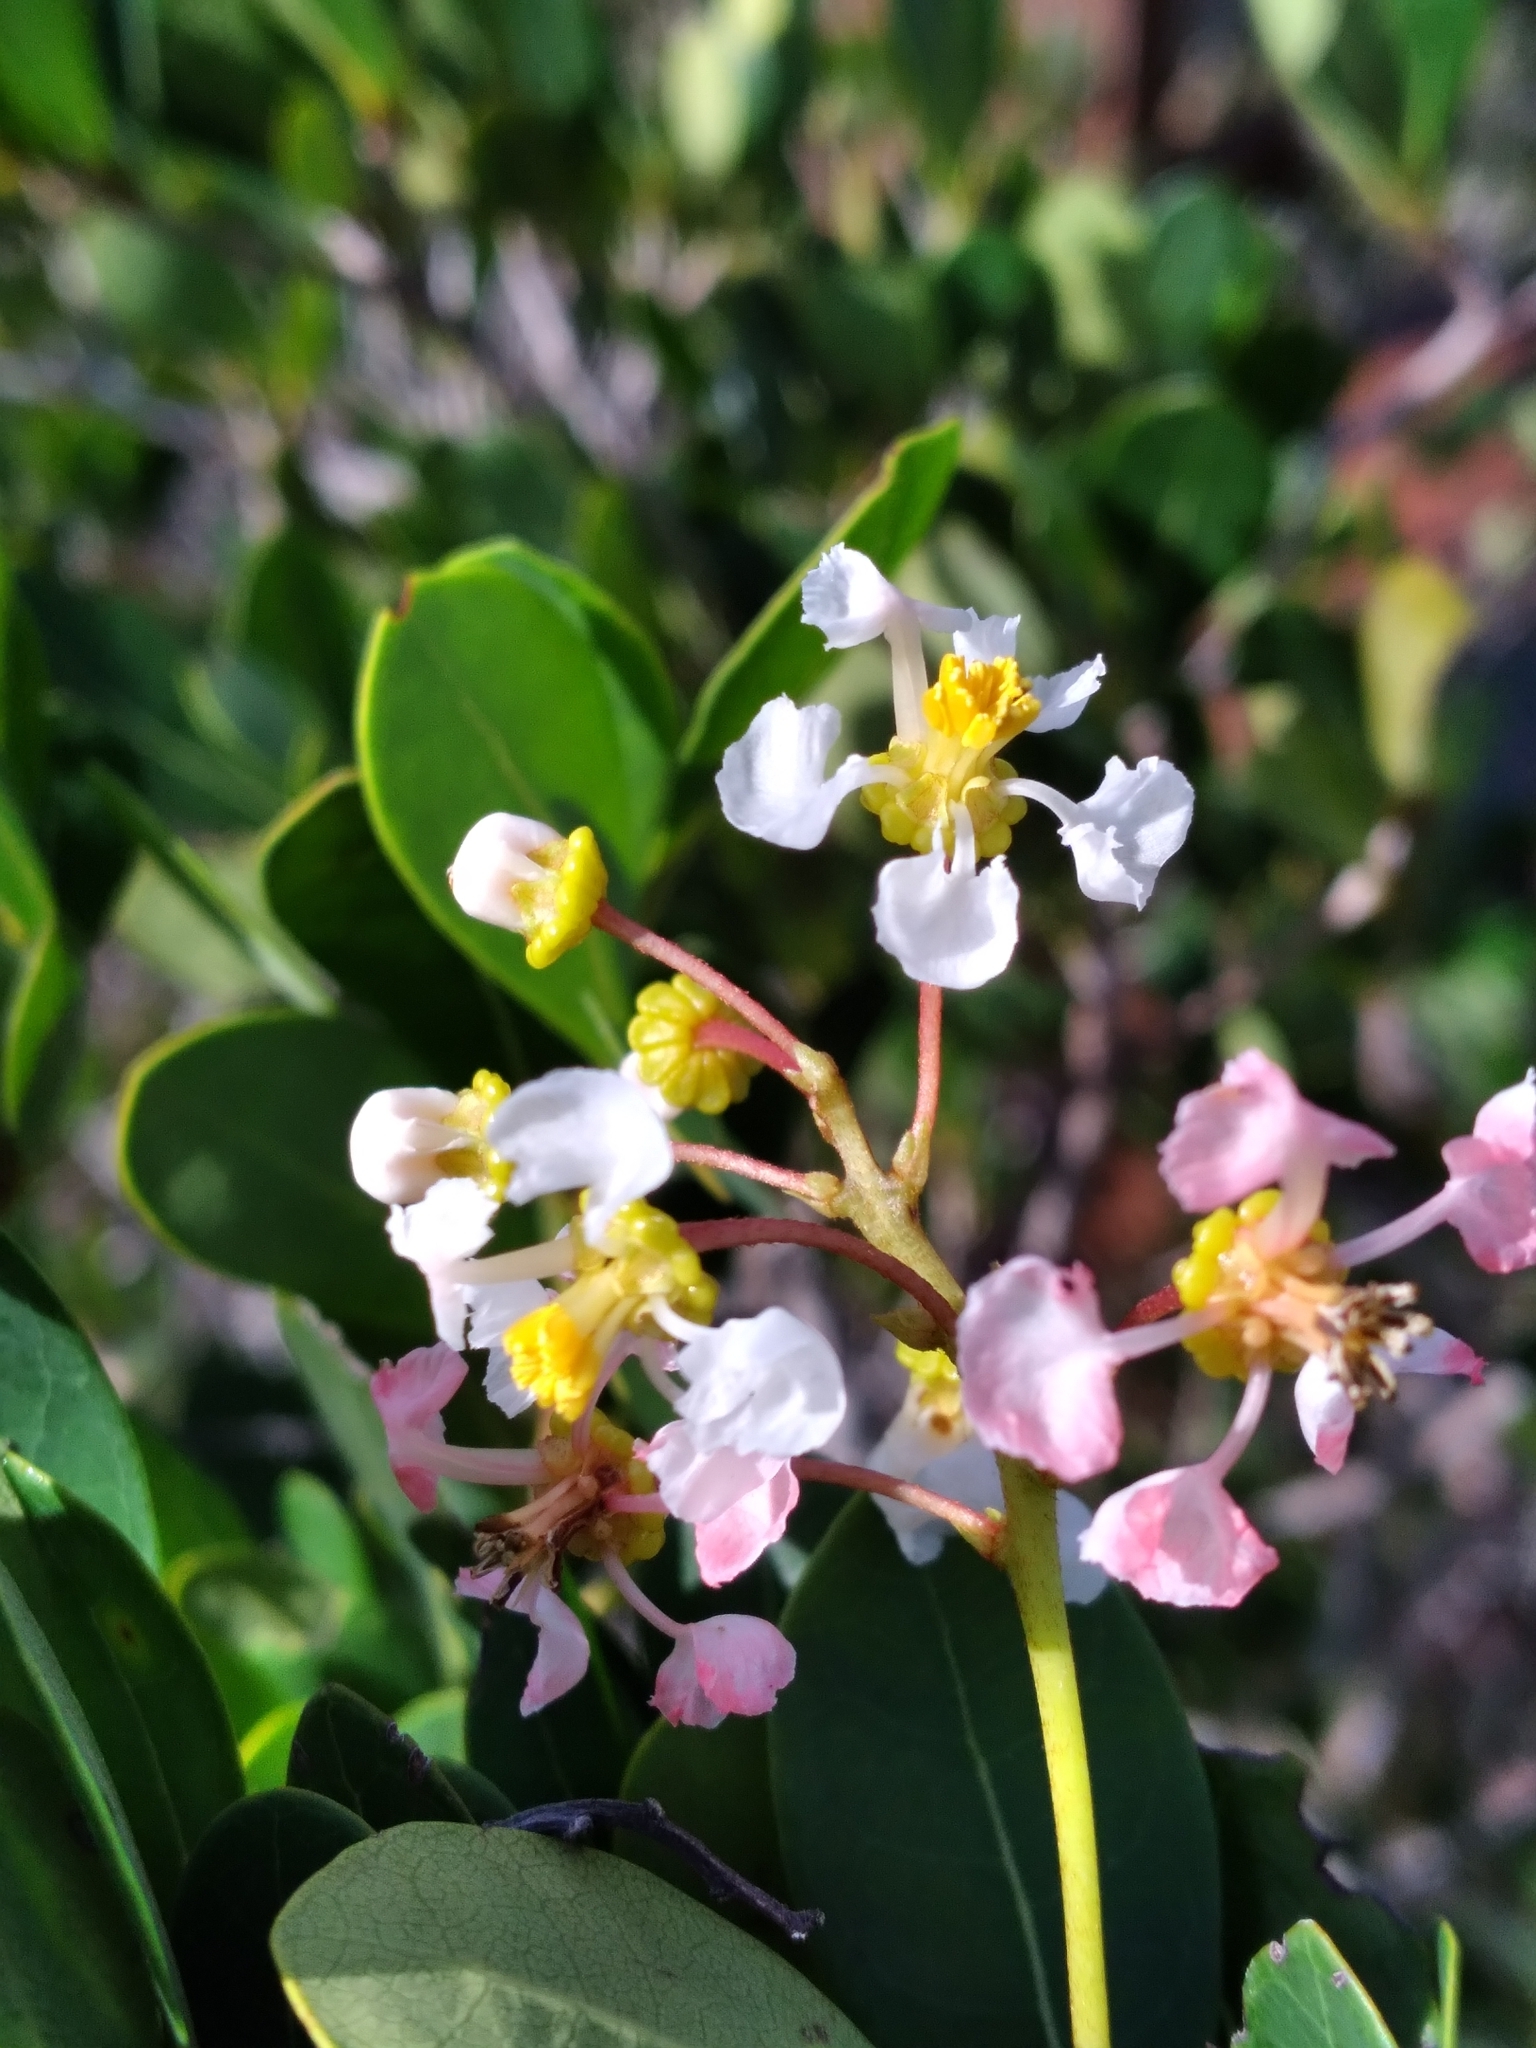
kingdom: Plantae
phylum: Tracheophyta
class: Magnoliopsida
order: Malpighiales
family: Malpighiaceae
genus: Byrsonima
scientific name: Byrsonima lucida
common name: Clam-cherry
